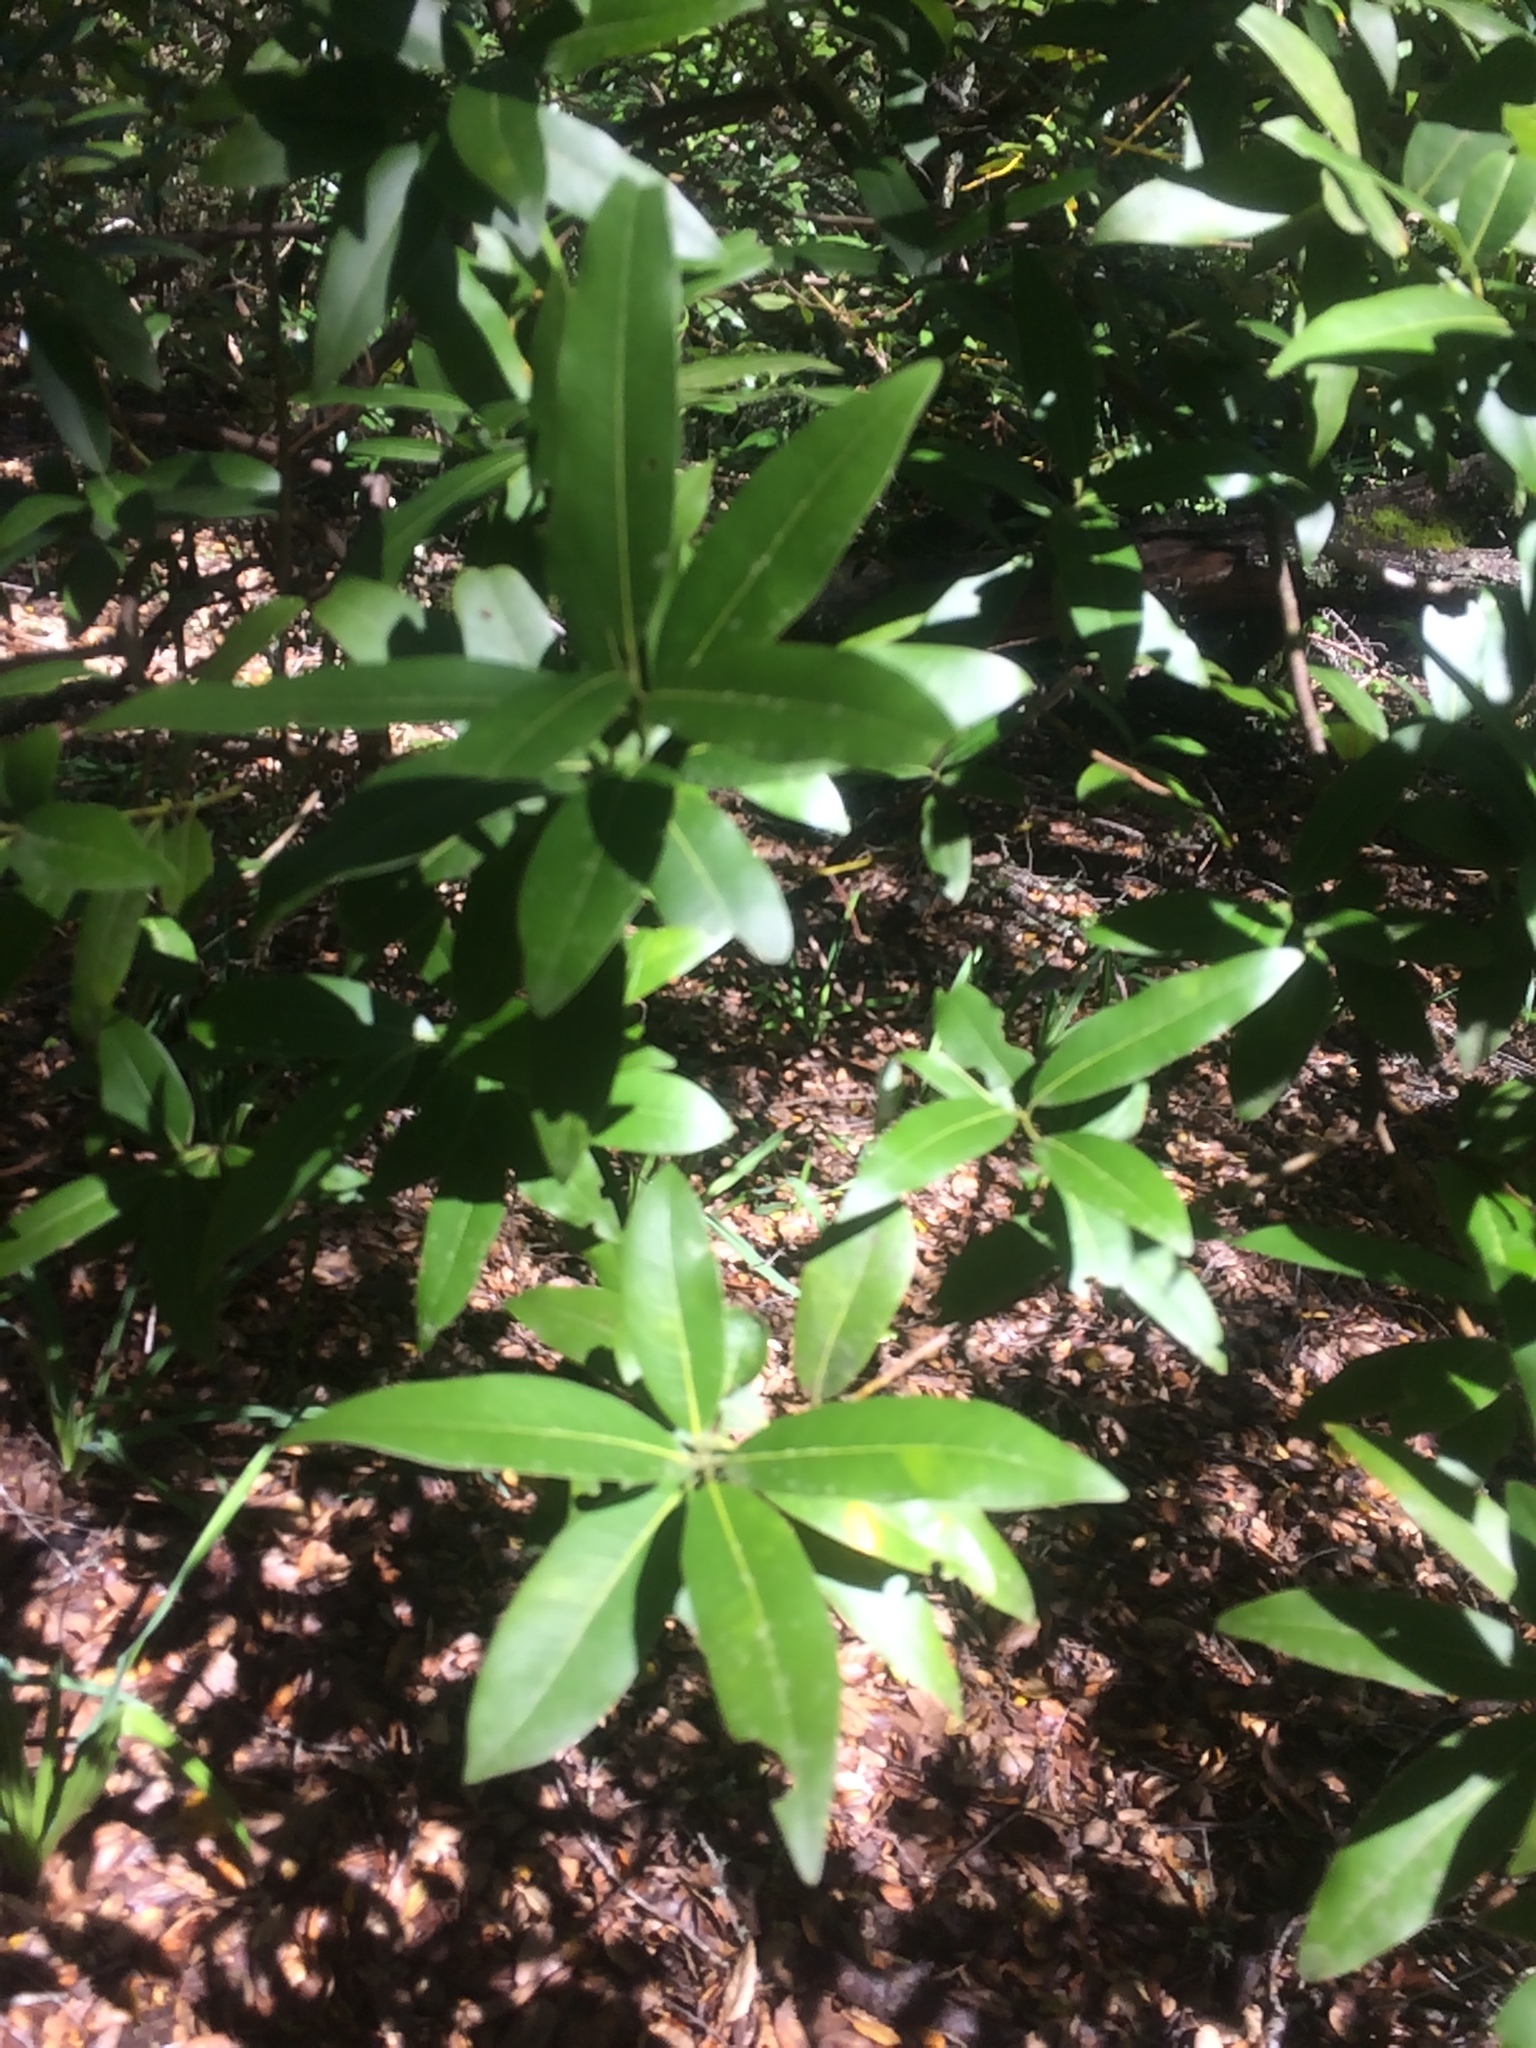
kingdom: Plantae
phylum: Tracheophyta
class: Magnoliopsida
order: Laurales
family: Lauraceae
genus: Umbellularia
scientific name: Umbellularia californica
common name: California bay
